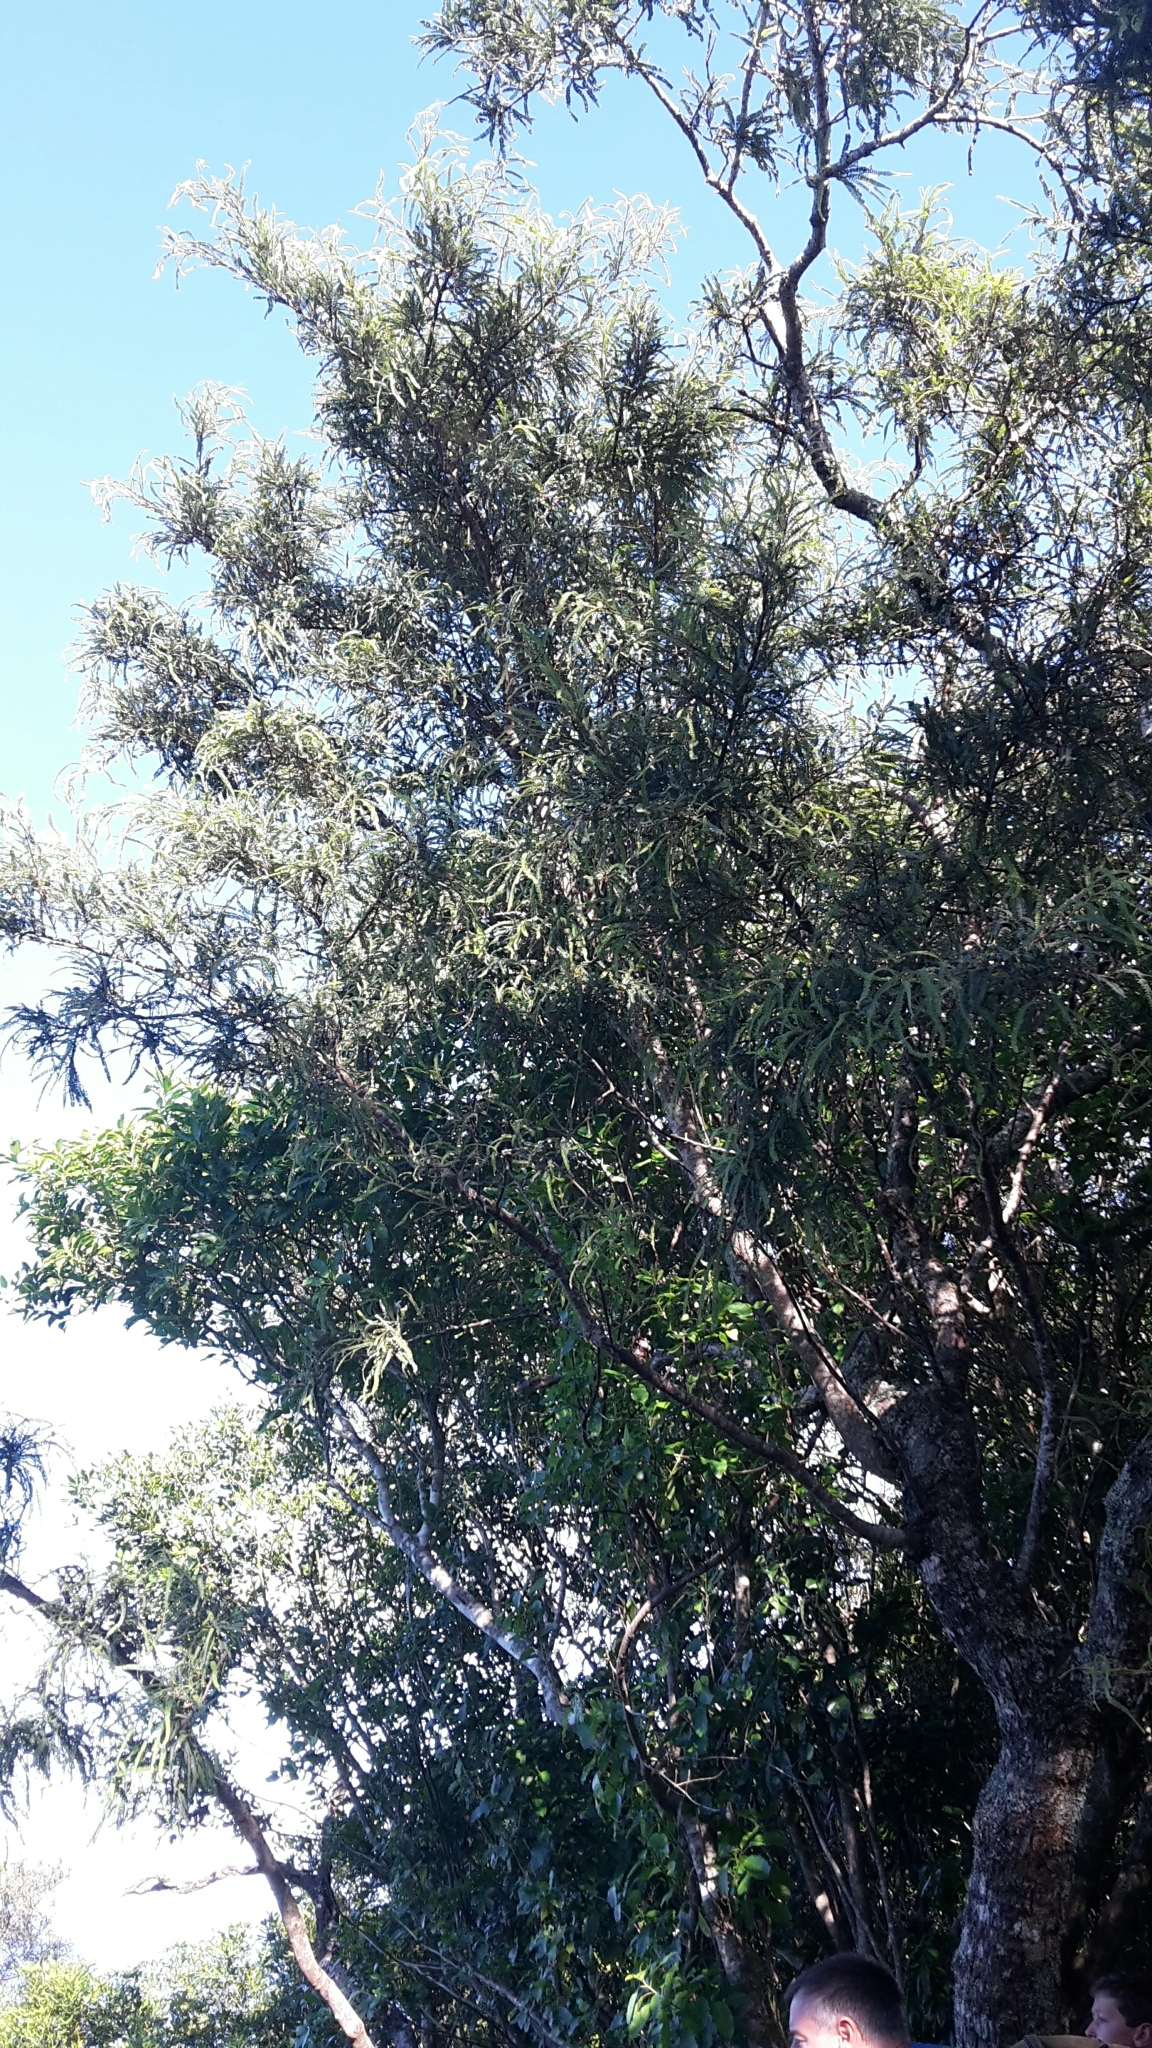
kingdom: Plantae
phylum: Tracheophyta
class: Magnoliopsida
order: Fabales
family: Fabaceae
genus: Sophora
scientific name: Sophora fulvida
